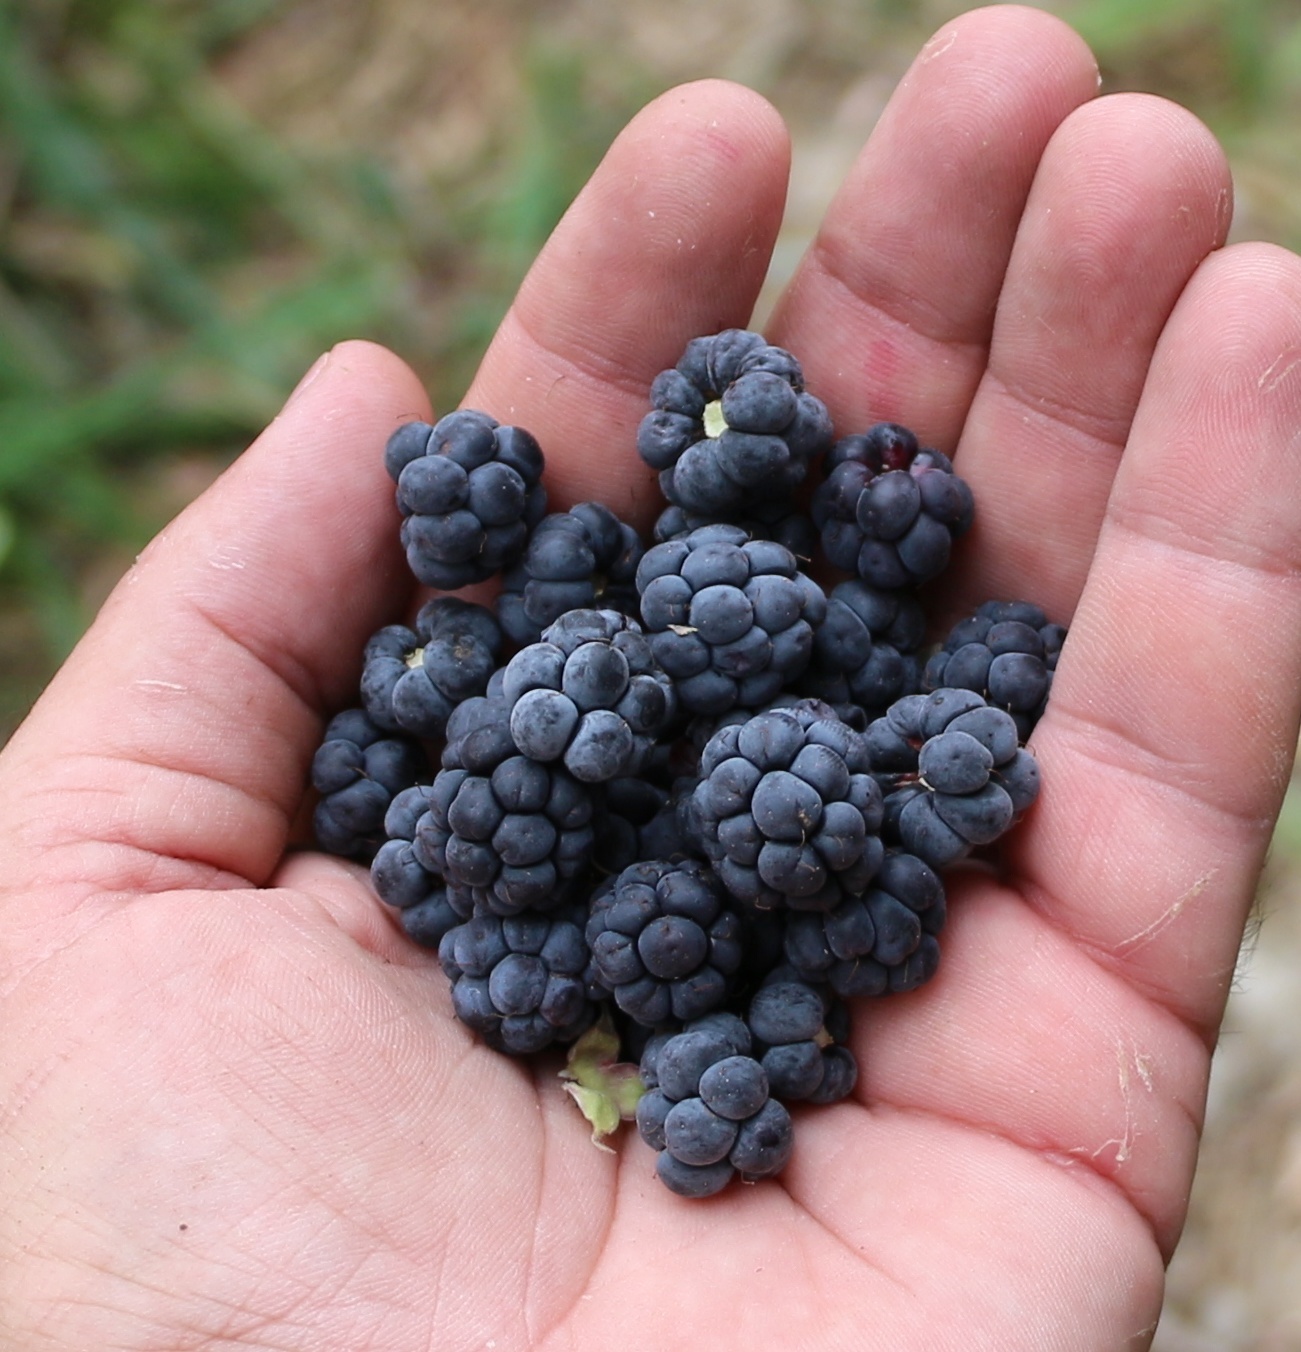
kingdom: Plantae
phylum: Tracheophyta
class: Magnoliopsida
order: Rosales
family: Rosaceae
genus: Rubus
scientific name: Rubus caesius
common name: Dewberry
